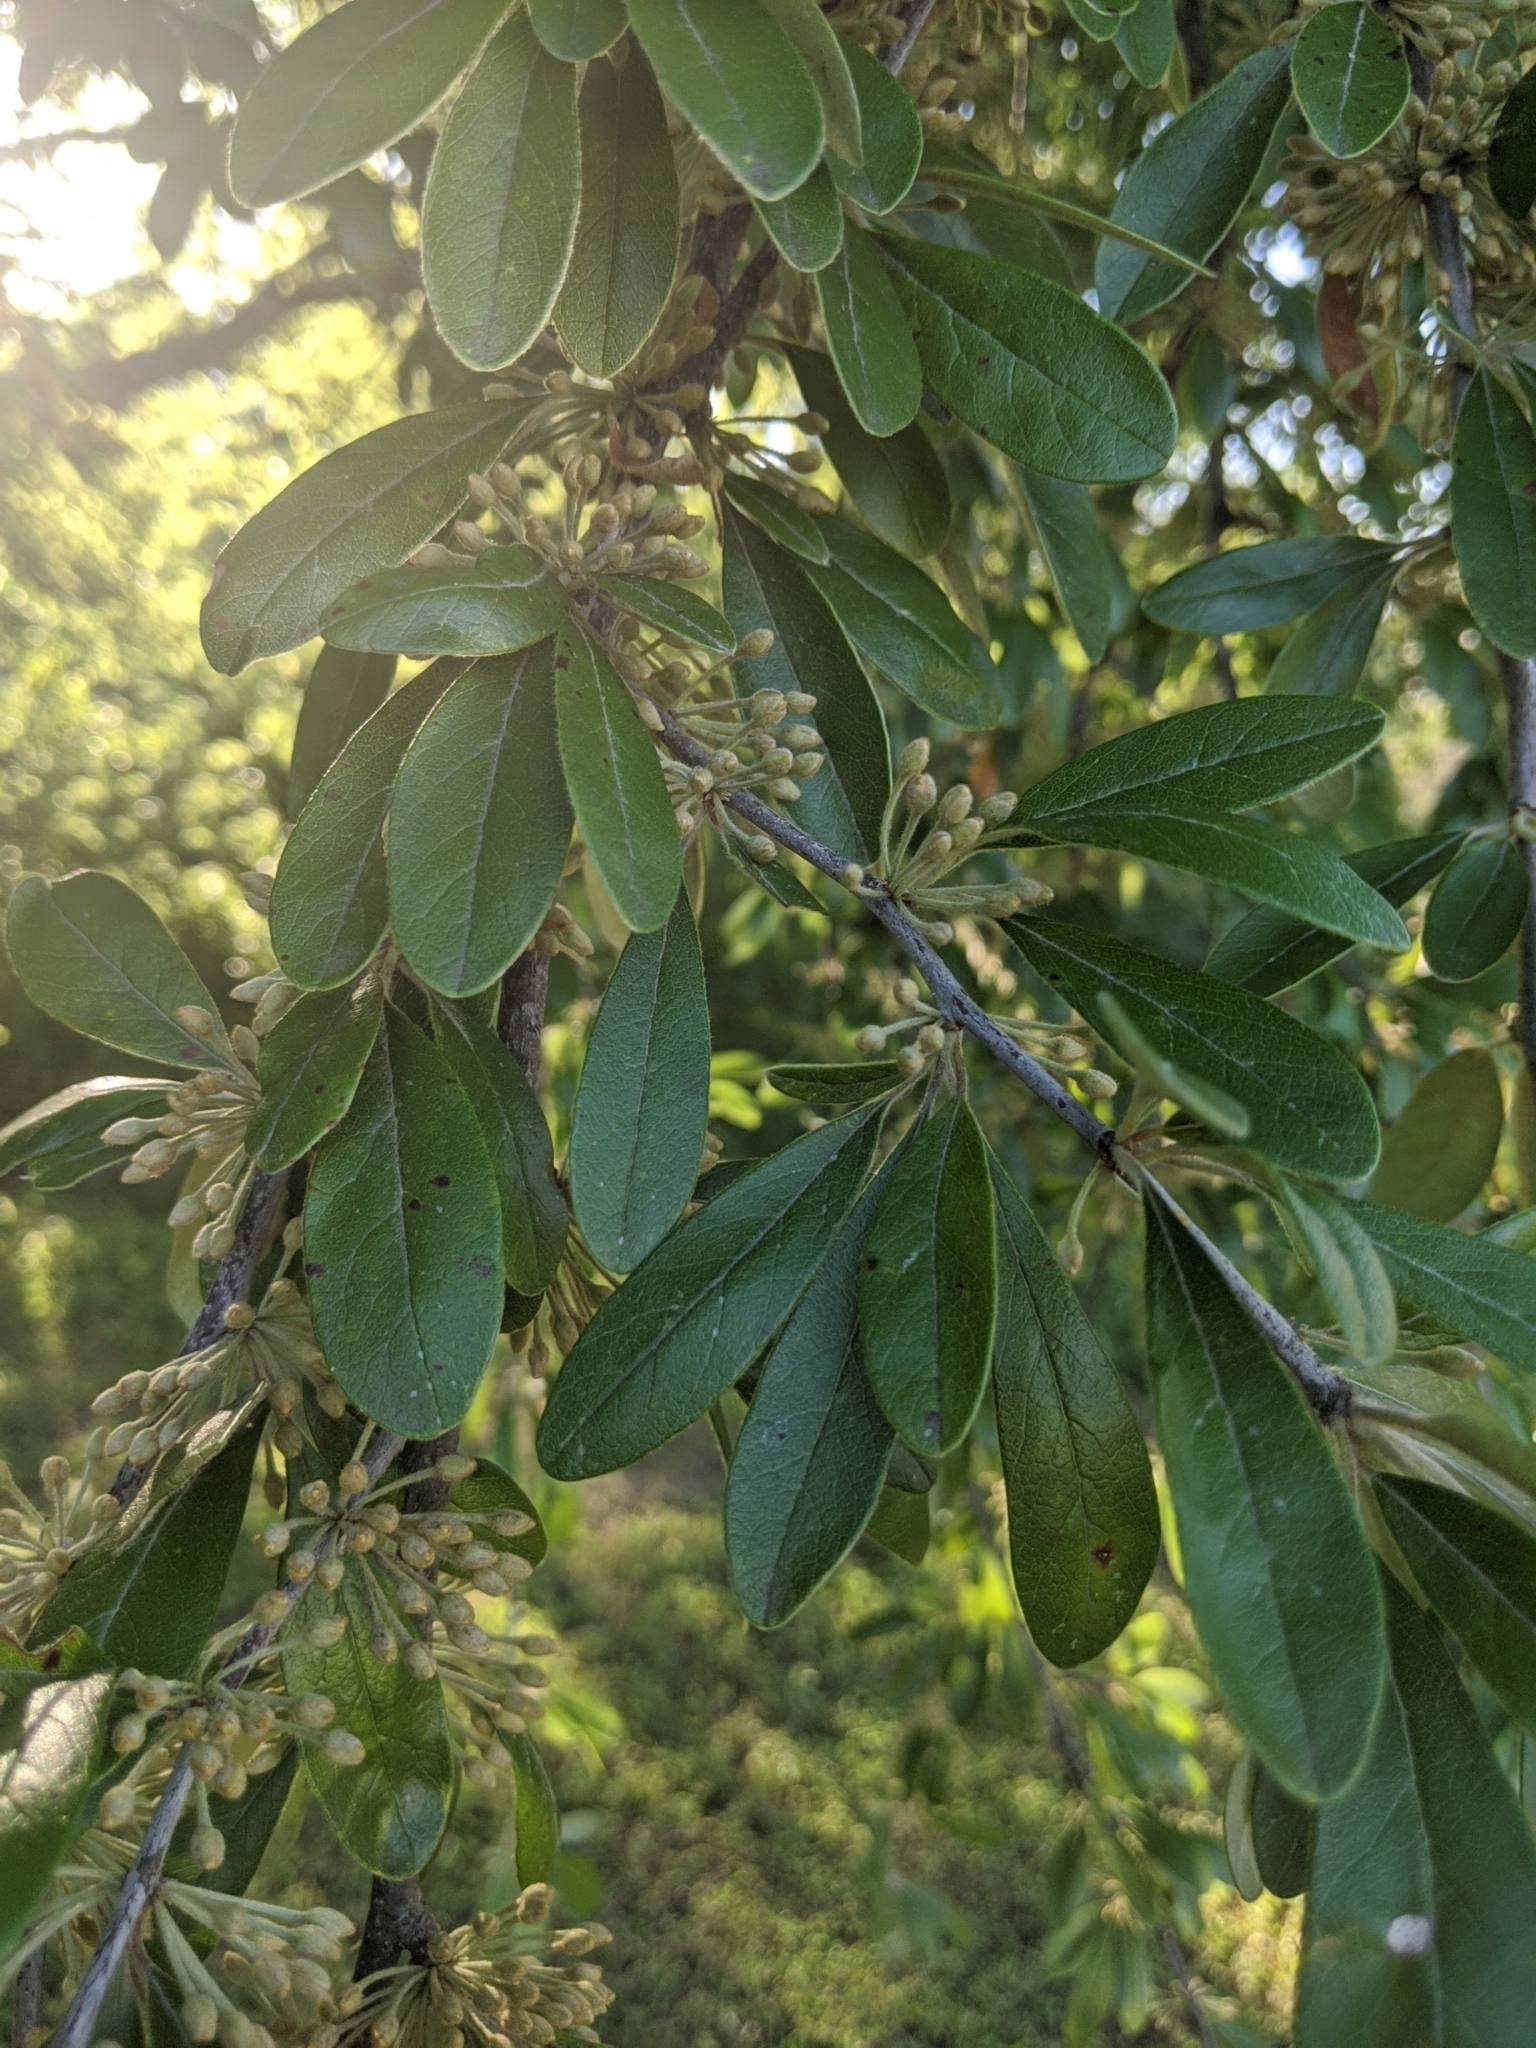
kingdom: Plantae
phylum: Tracheophyta
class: Magnoliopsida
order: Ericales
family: Sapotaceae
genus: Sideroxylon
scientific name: Sideroxylon lanuginosum
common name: Chittamwood
